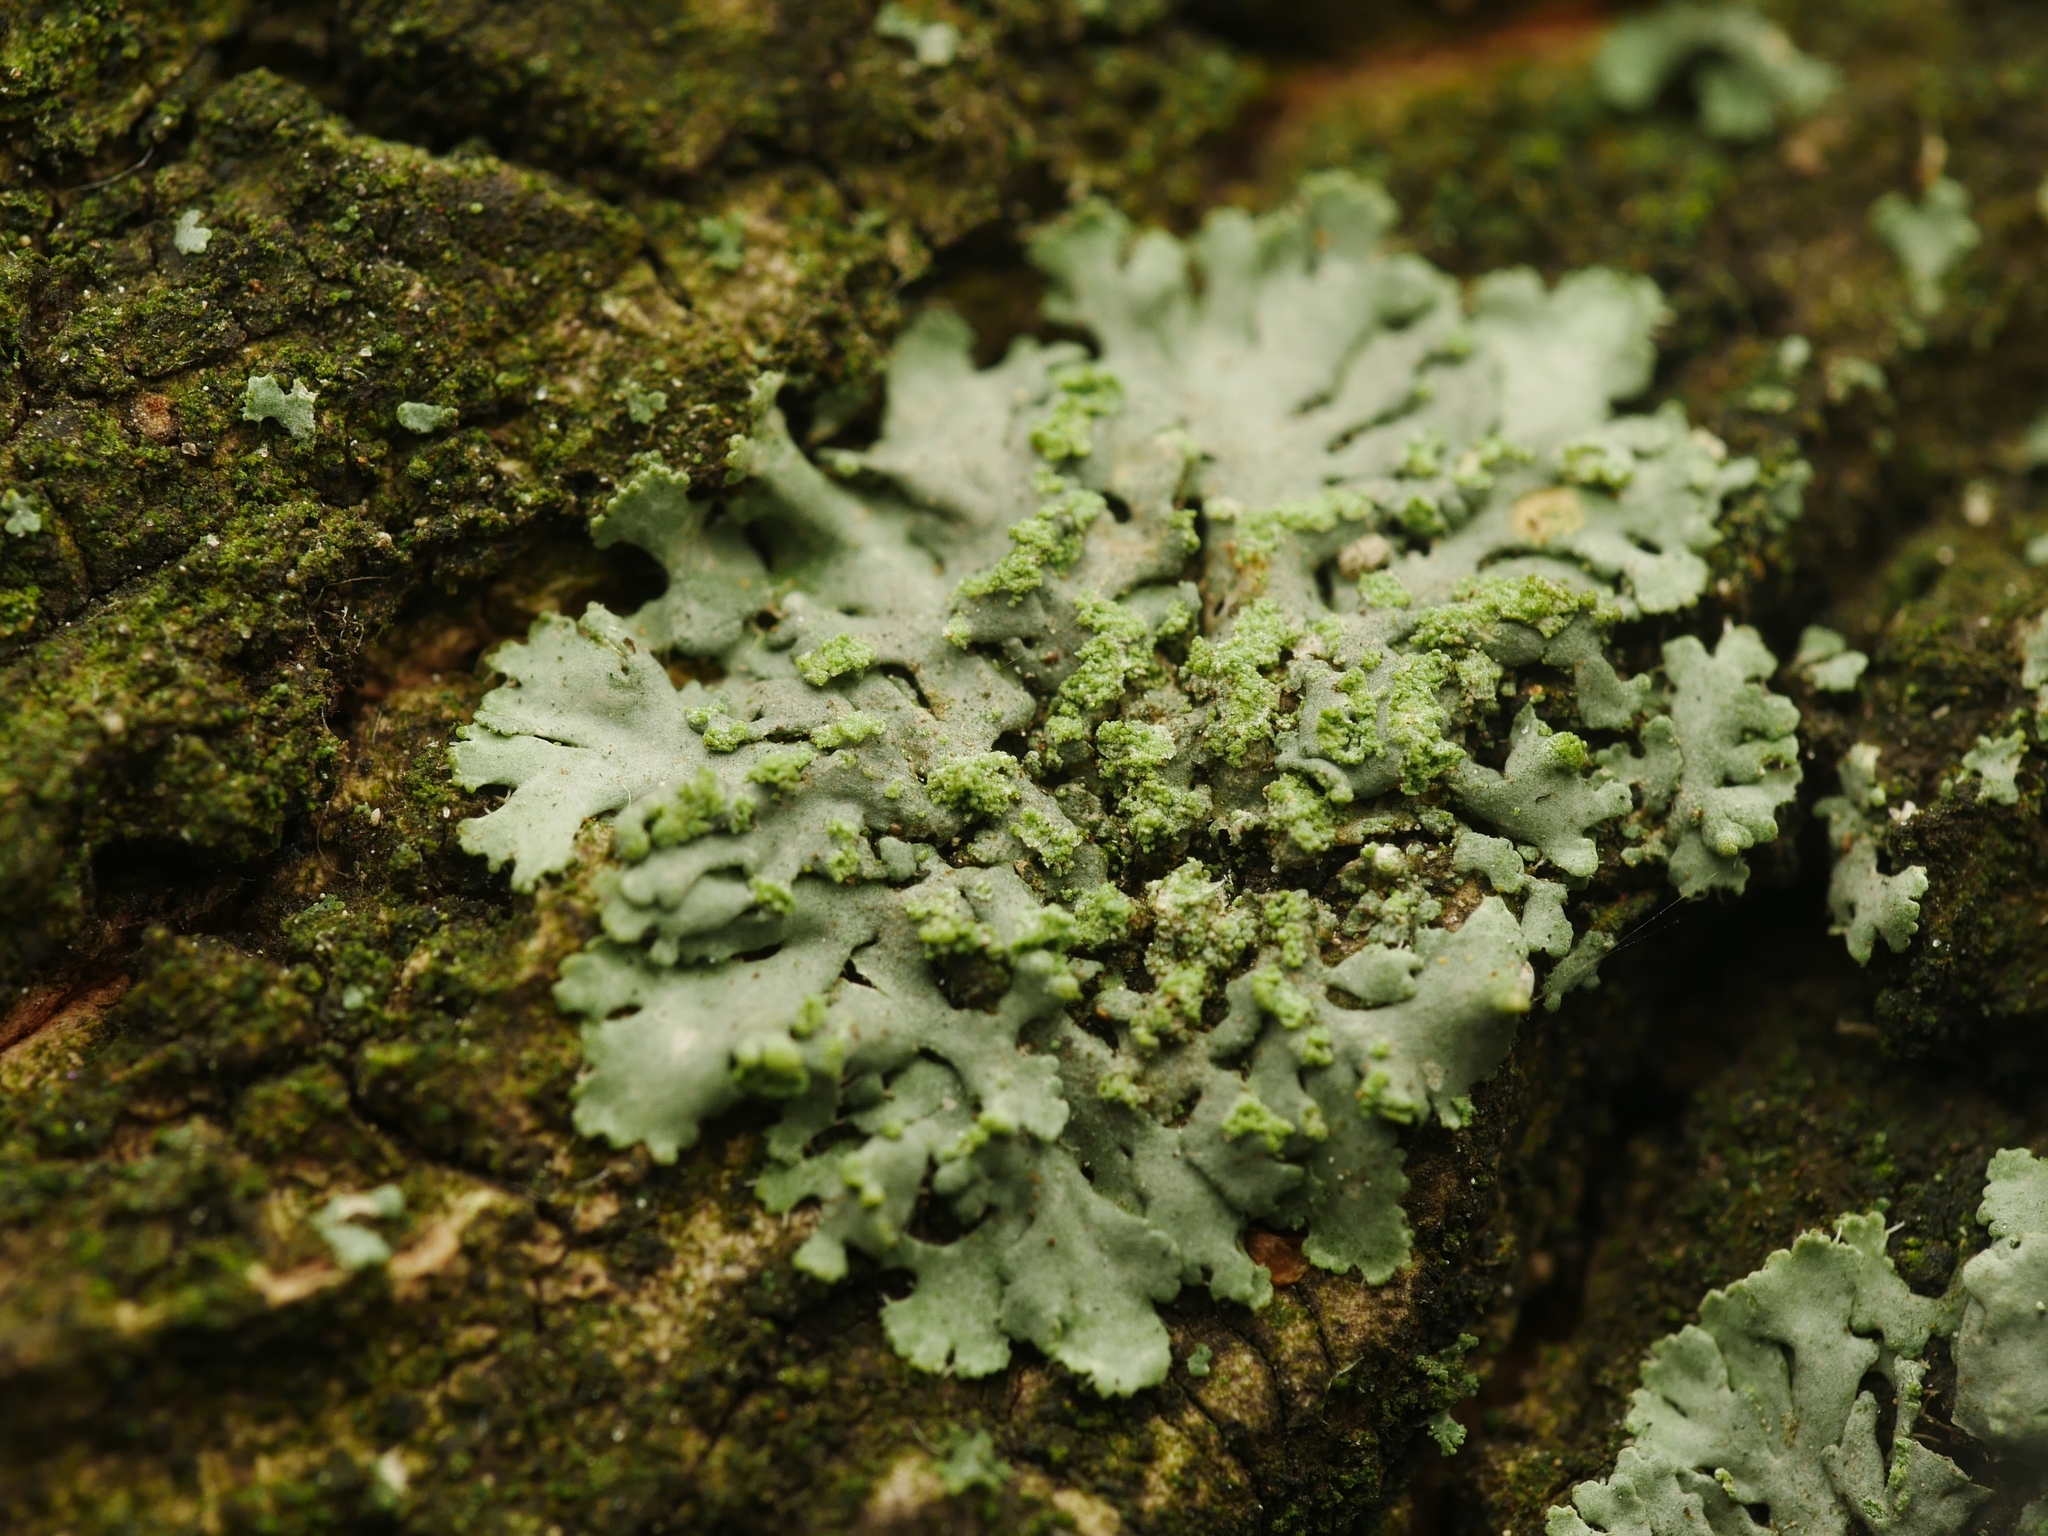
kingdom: Fungi
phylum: Ascomycota
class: Lecanoromycetes
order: Caliciales
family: Physciaceae
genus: Phaeophyscia
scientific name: Phaeophyscia orbicularis
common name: Mealy shadow lichen
